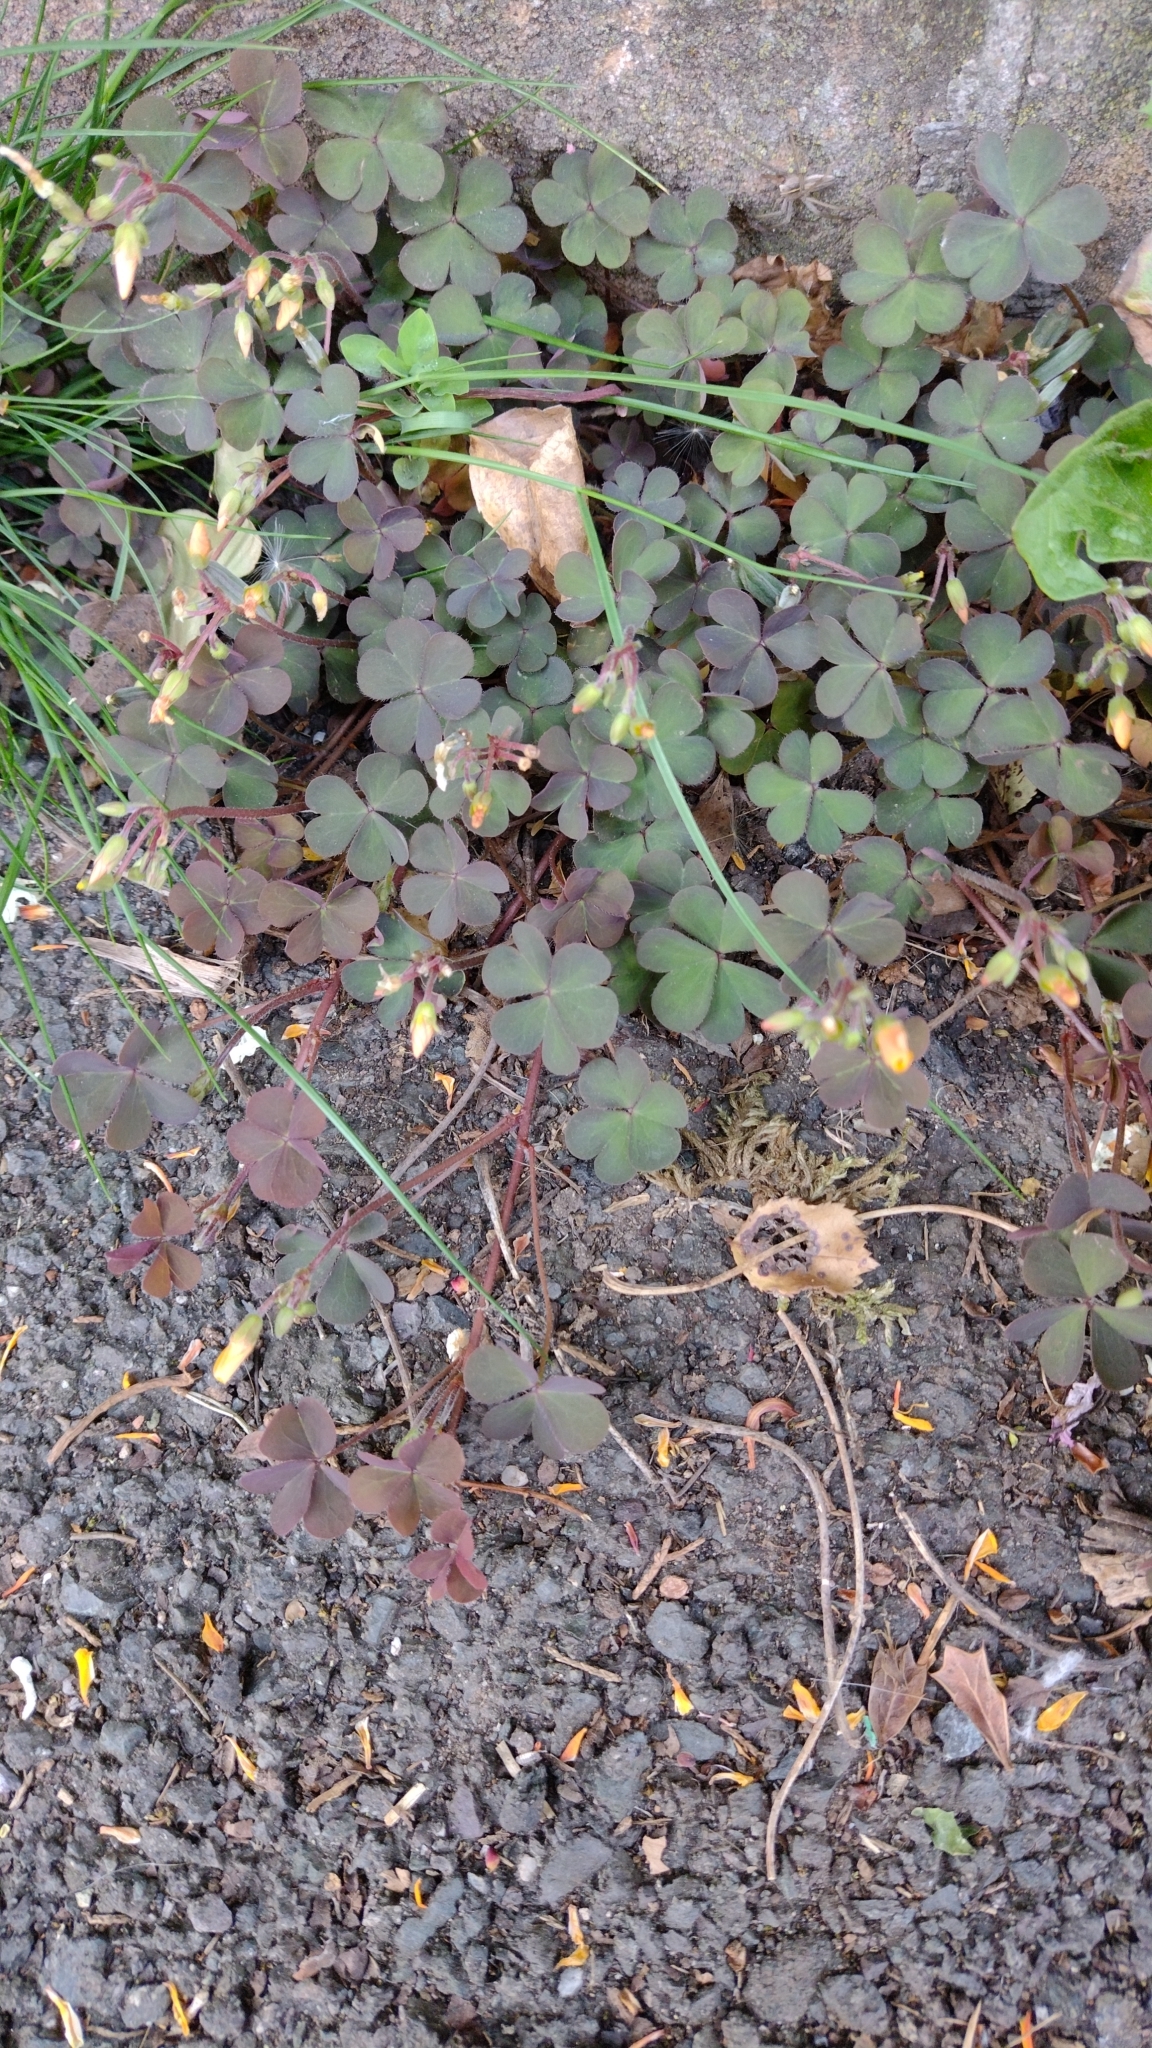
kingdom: Plantae
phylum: Tracheophyta
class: Magnoliopsida
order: Oxalidales
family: Oxalidaceae
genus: Oxalis
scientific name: Oxalis corniculata
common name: Procumbent yellow-sorrel
